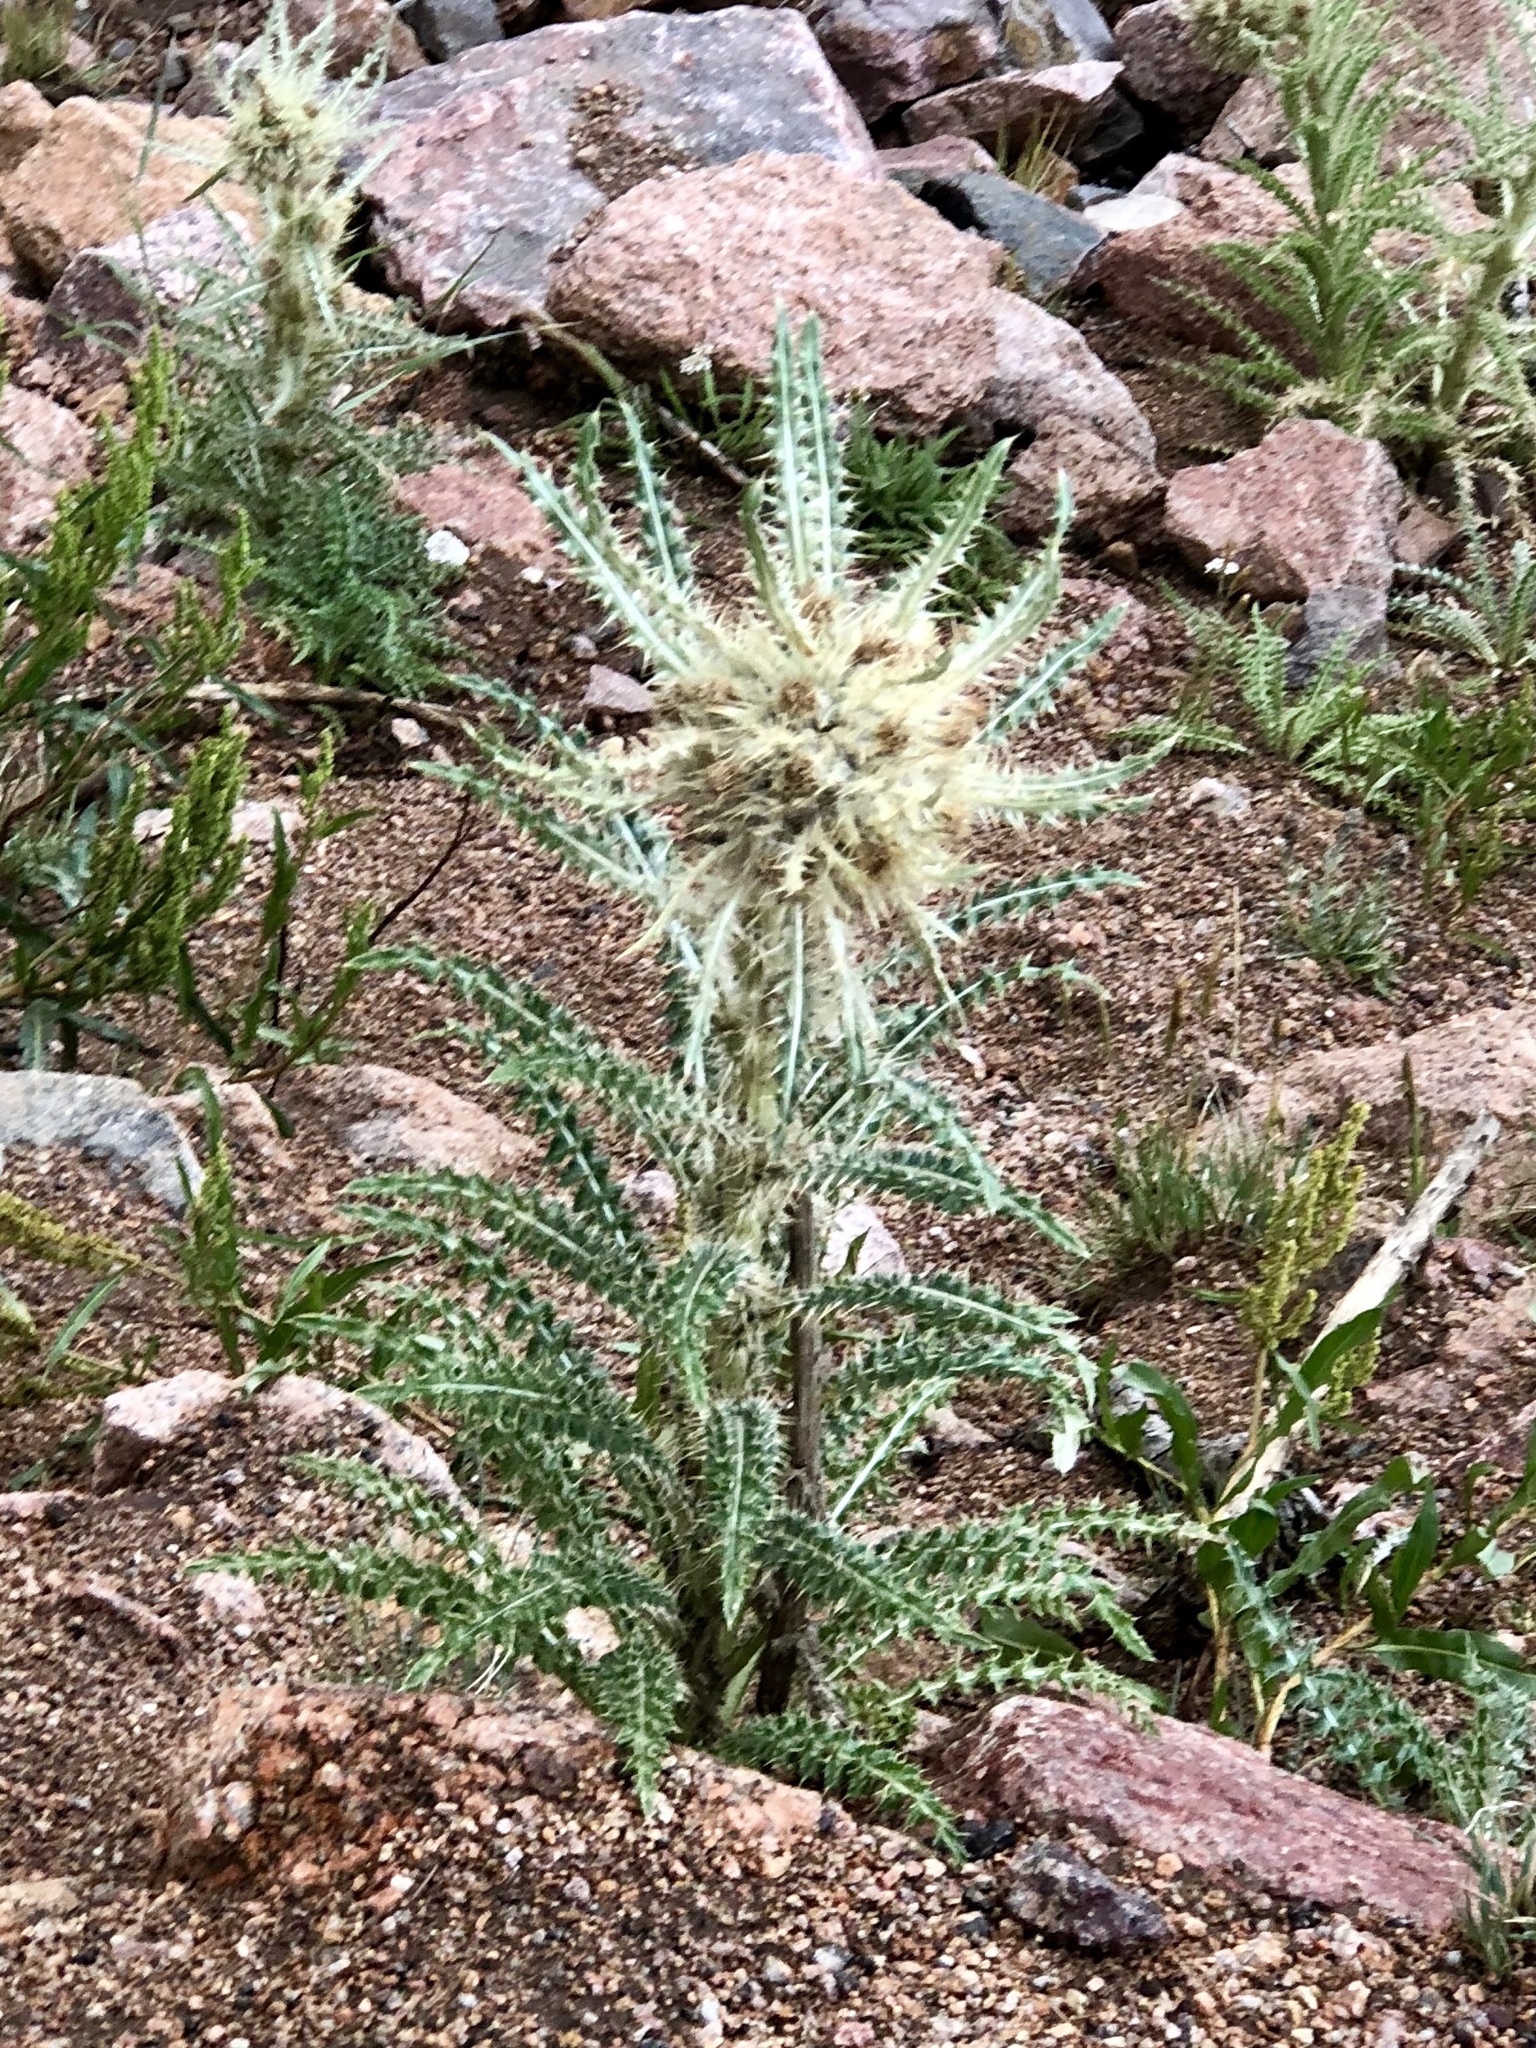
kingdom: Plantae
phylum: Tracheophyta
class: Magnoliopsida
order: Asterales
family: Asteraceae
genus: Cirsium
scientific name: Cirsium scopulorum
